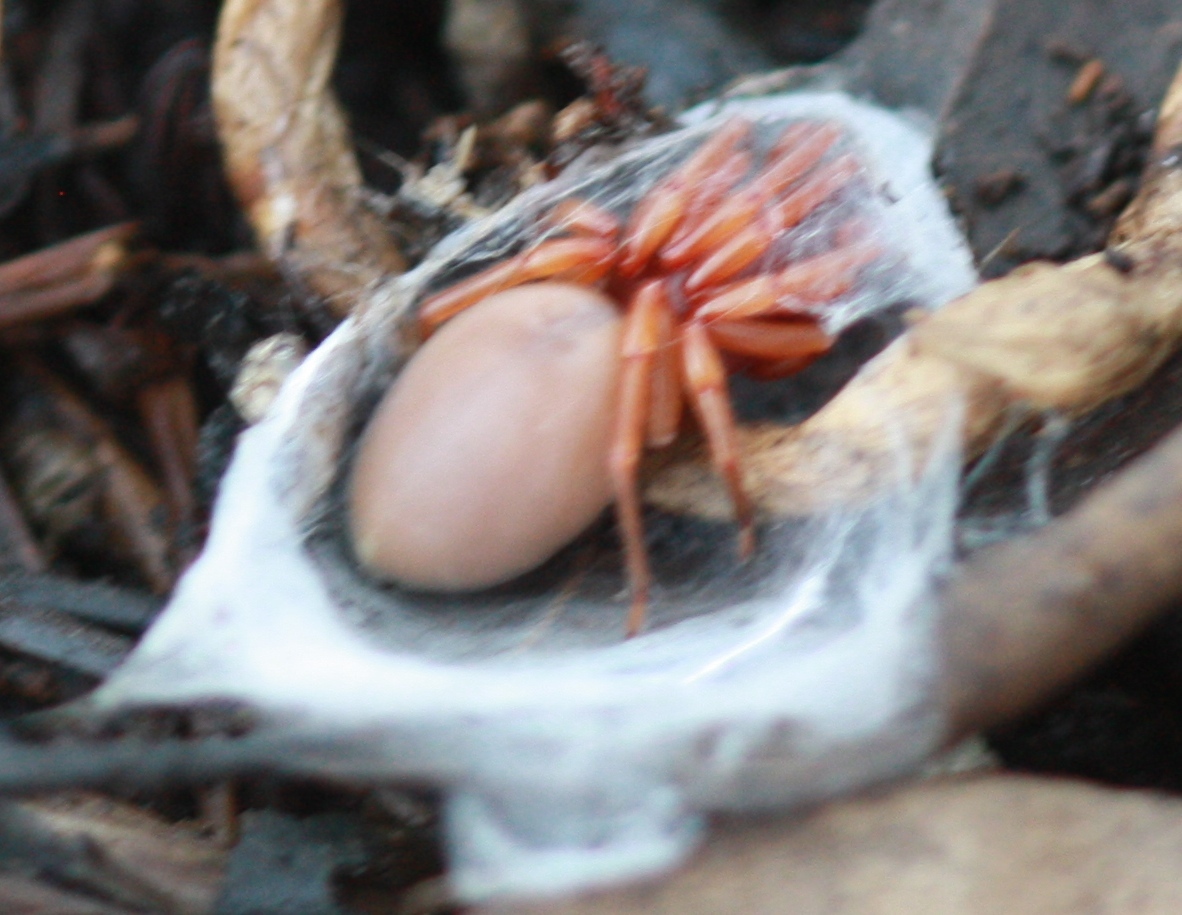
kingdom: Animalia
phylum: Arthropoda
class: Arachnida
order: Araneae
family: Dysderidae
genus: Dysdera
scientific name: Dysdera crocata
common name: Woodlouse spider
